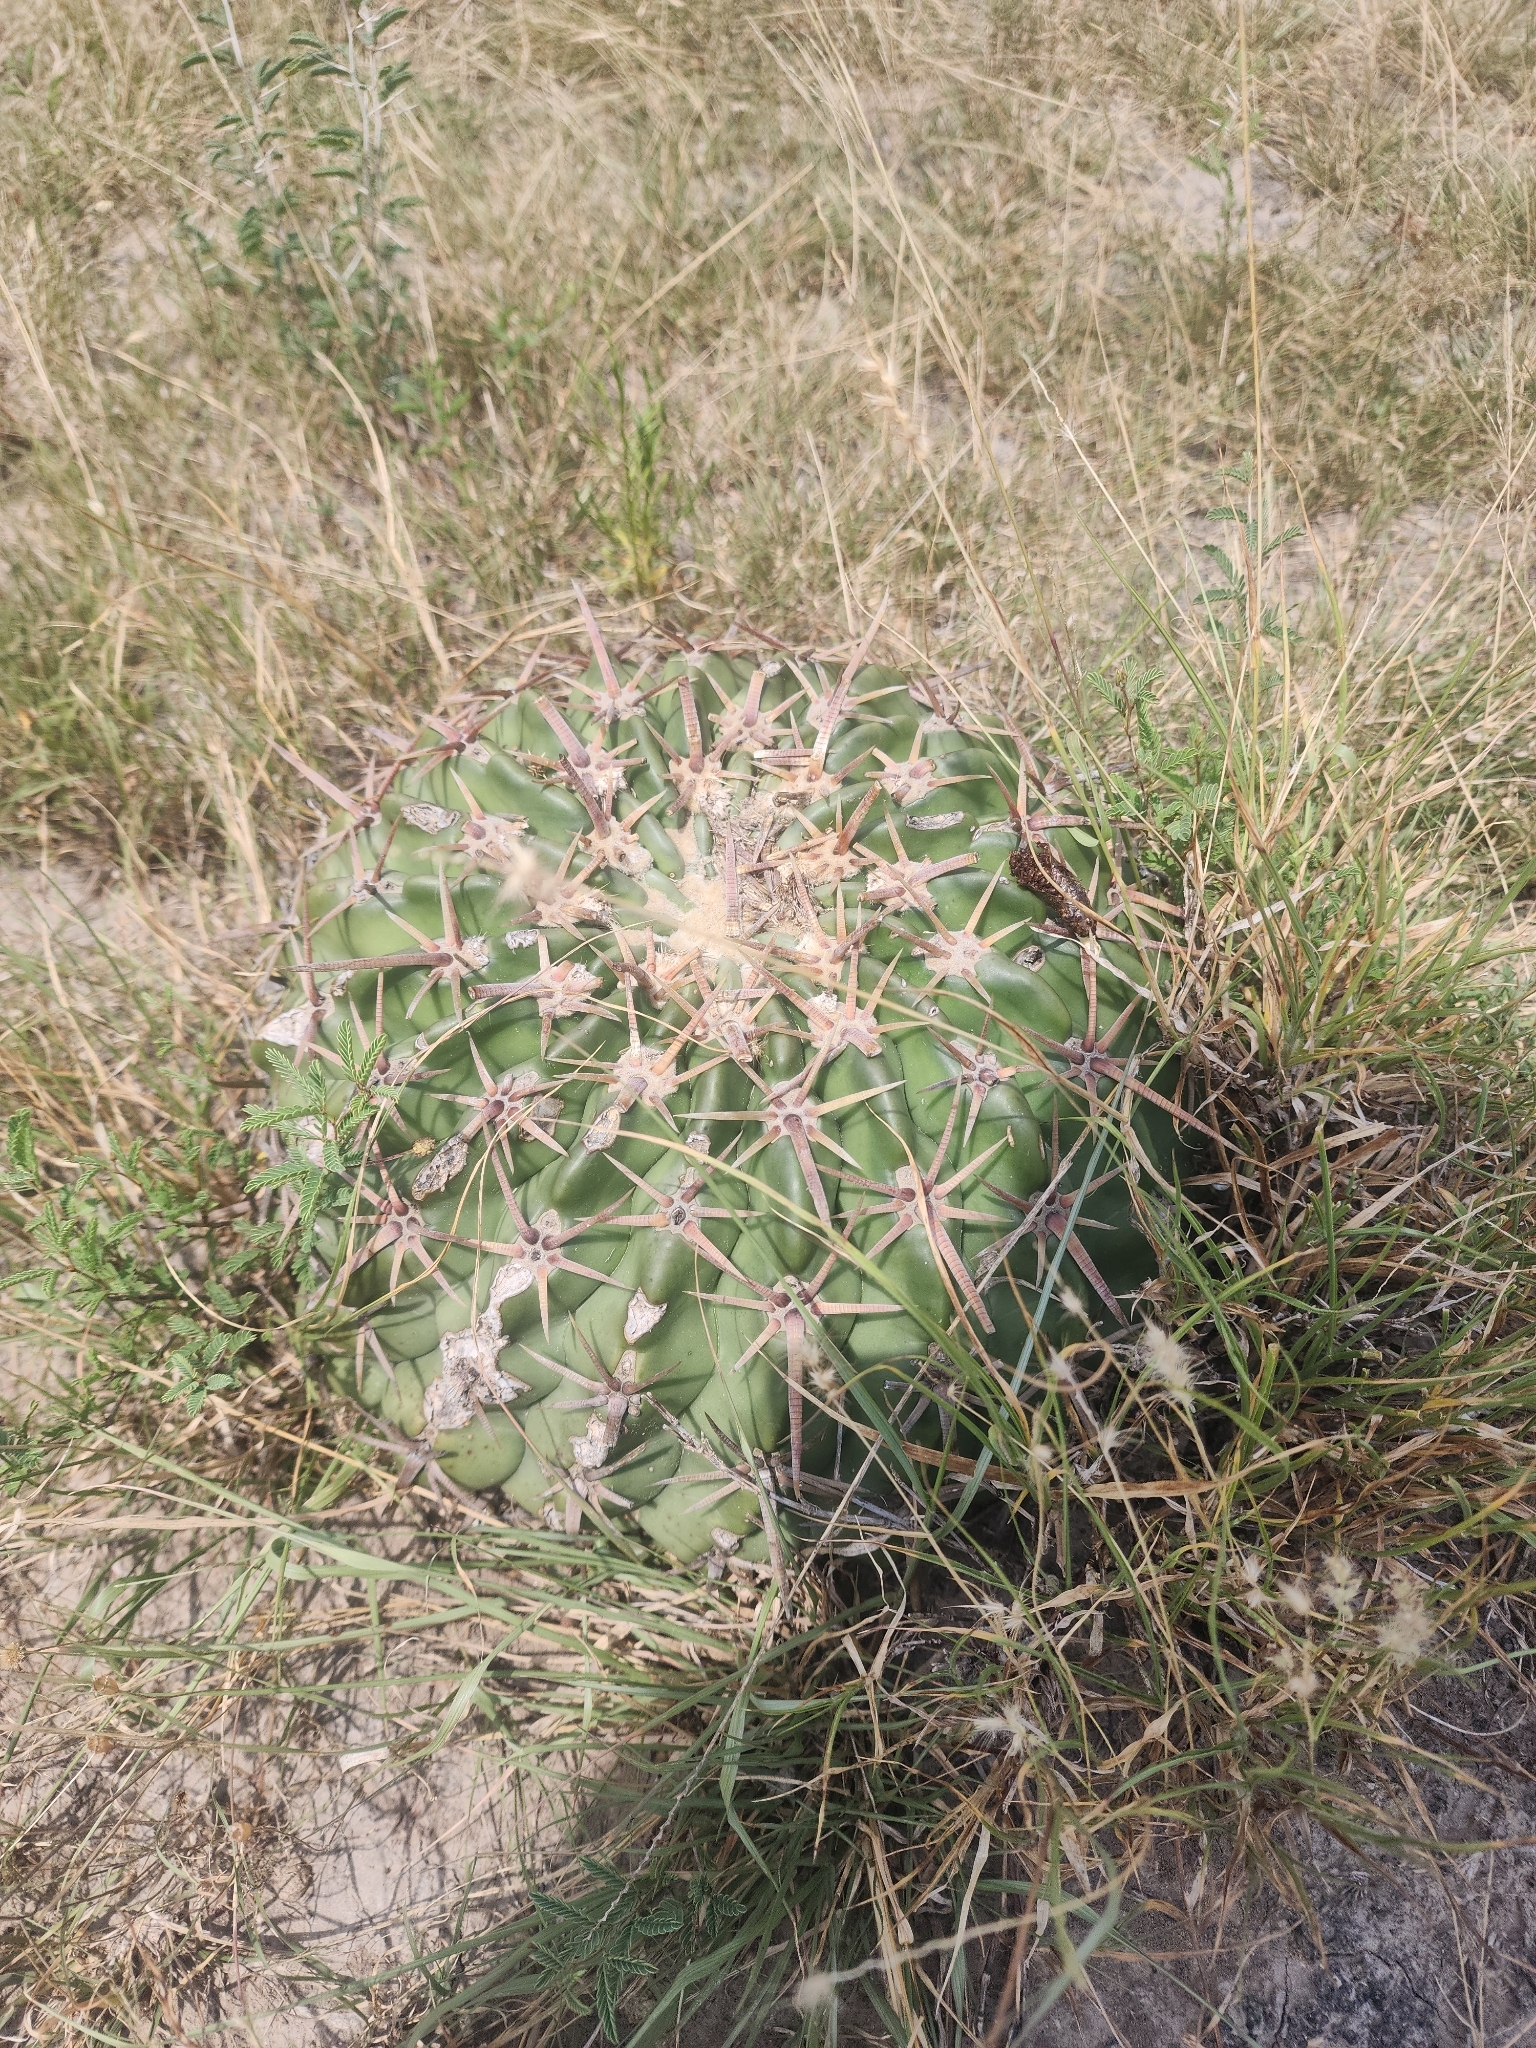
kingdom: Plantae
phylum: Tracheophyta
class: Magnoliopsida
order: Caryophyllales
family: Cactaceae
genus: Echinocactus
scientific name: Echinocactus texensis
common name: Devil's pincushion
